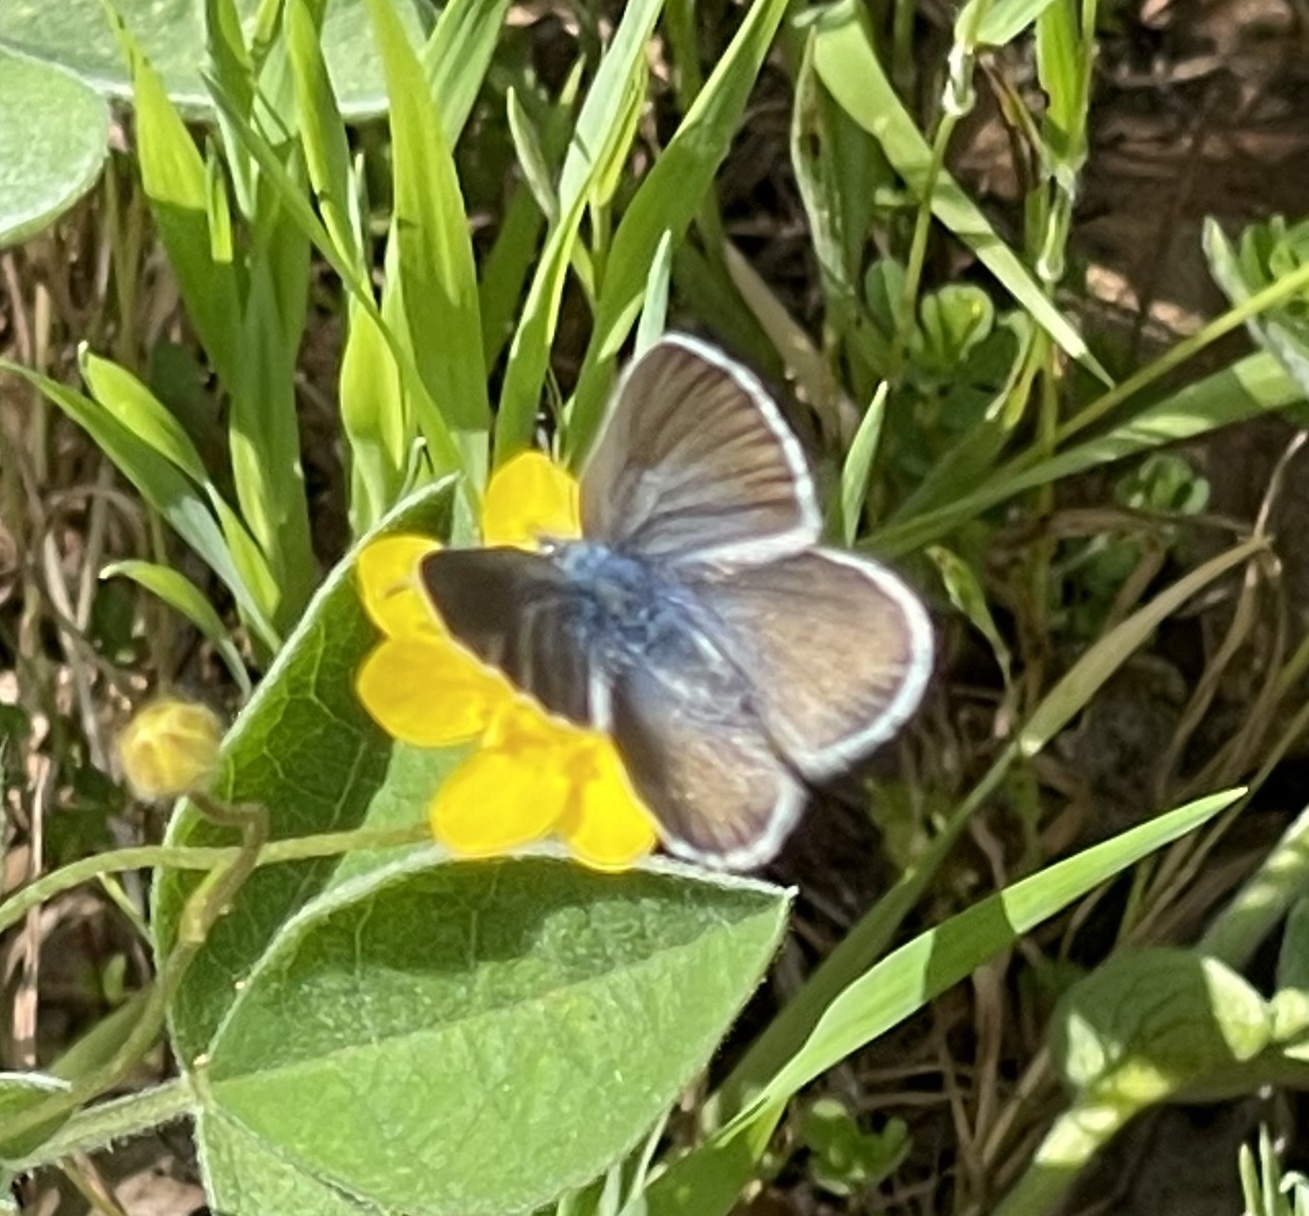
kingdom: Animalia
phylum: Arthropoda
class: Insecta
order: Lepidoptera
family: Lycaenidae
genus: Glaucopsyche
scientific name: Glaucopsyche lygdamus
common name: Silvery blue
